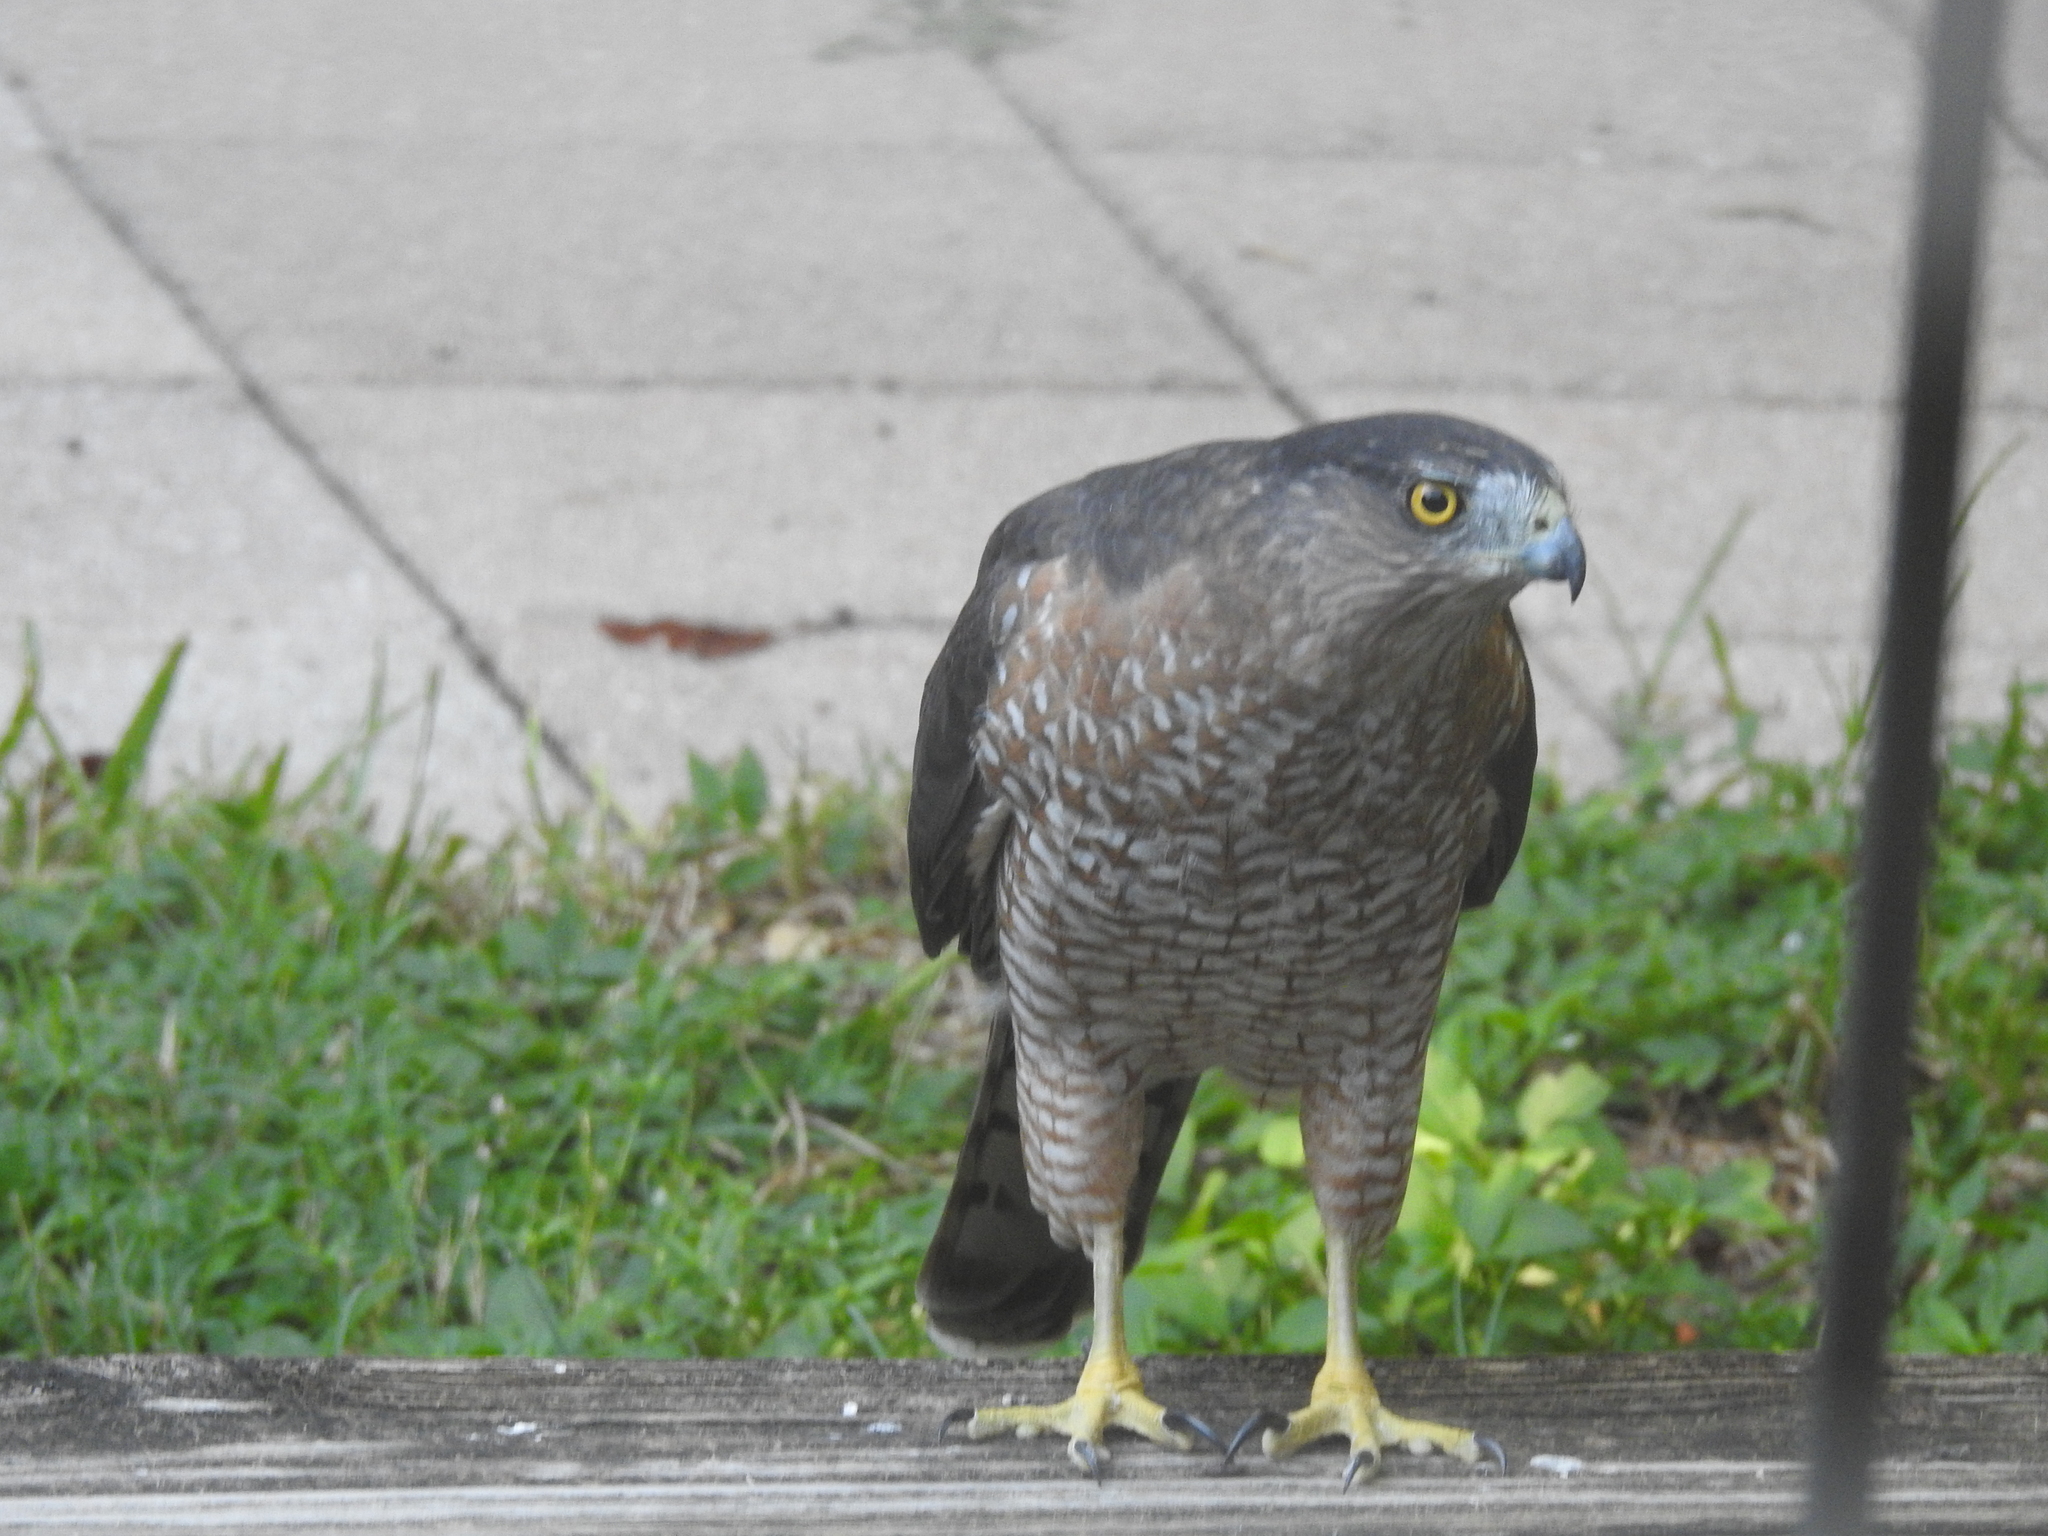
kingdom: Animalia
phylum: Chordata
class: Aves
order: Accipitriformes
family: Accipitridae
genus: Accipiter
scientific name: Accipiter cooperii
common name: Cooper's hawk
